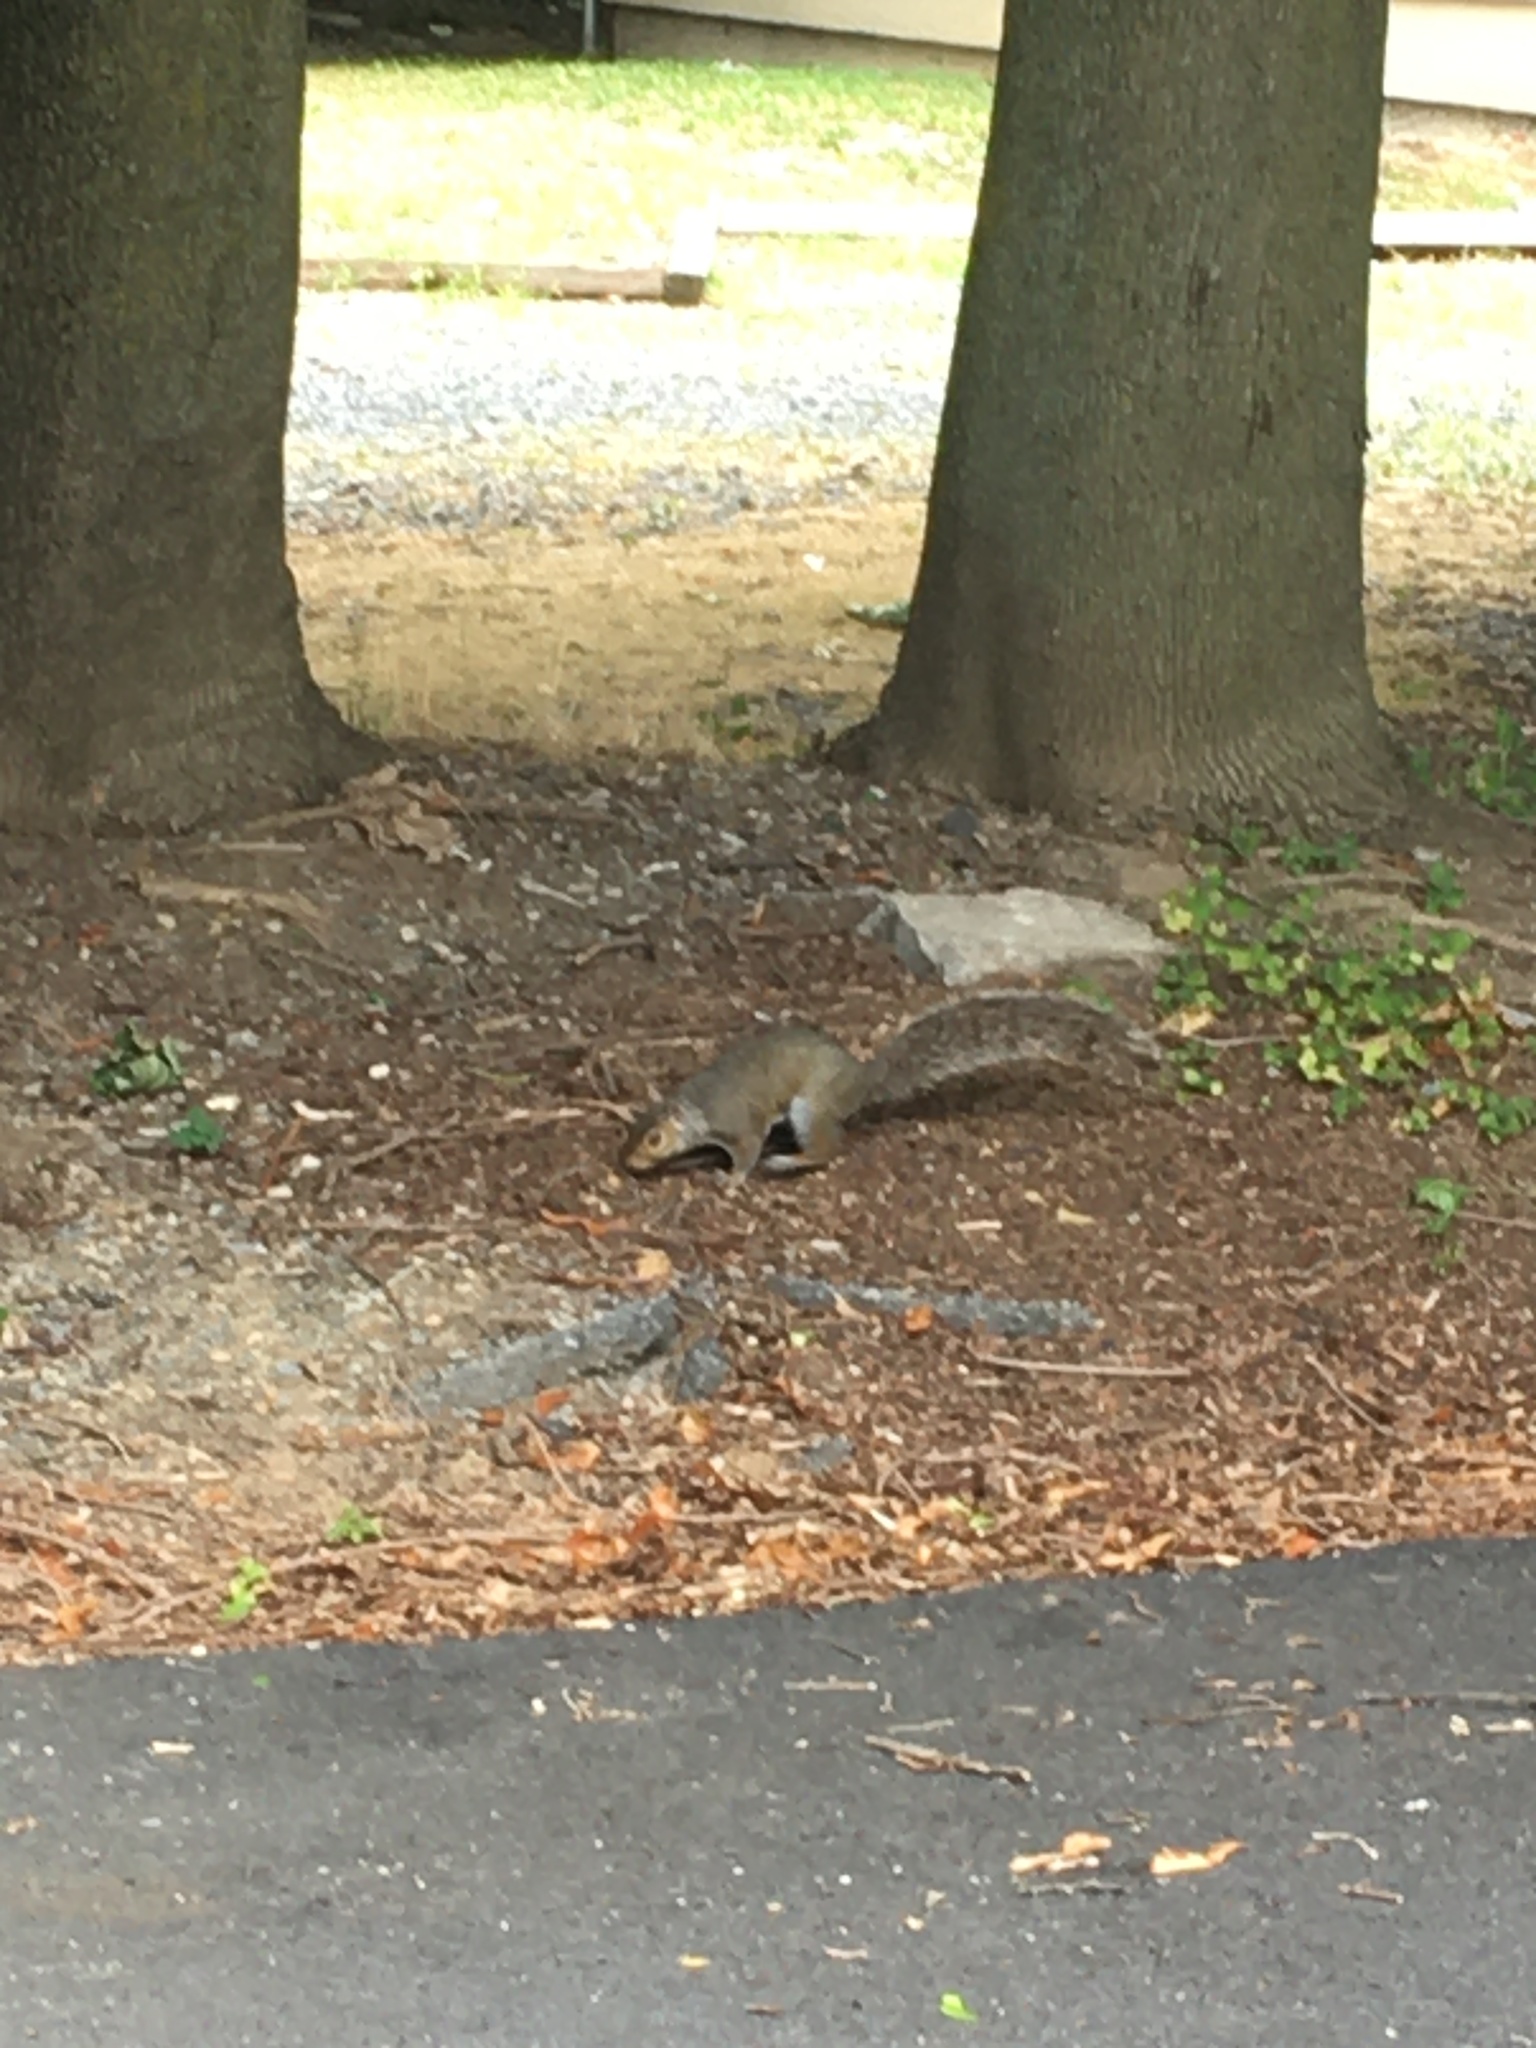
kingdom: Animalia
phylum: Chordata
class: Mammalia
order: Rodentia
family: Sciuridae
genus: Sciurus
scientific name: Sciurus carolinensis
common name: Eastern gray squirrel
